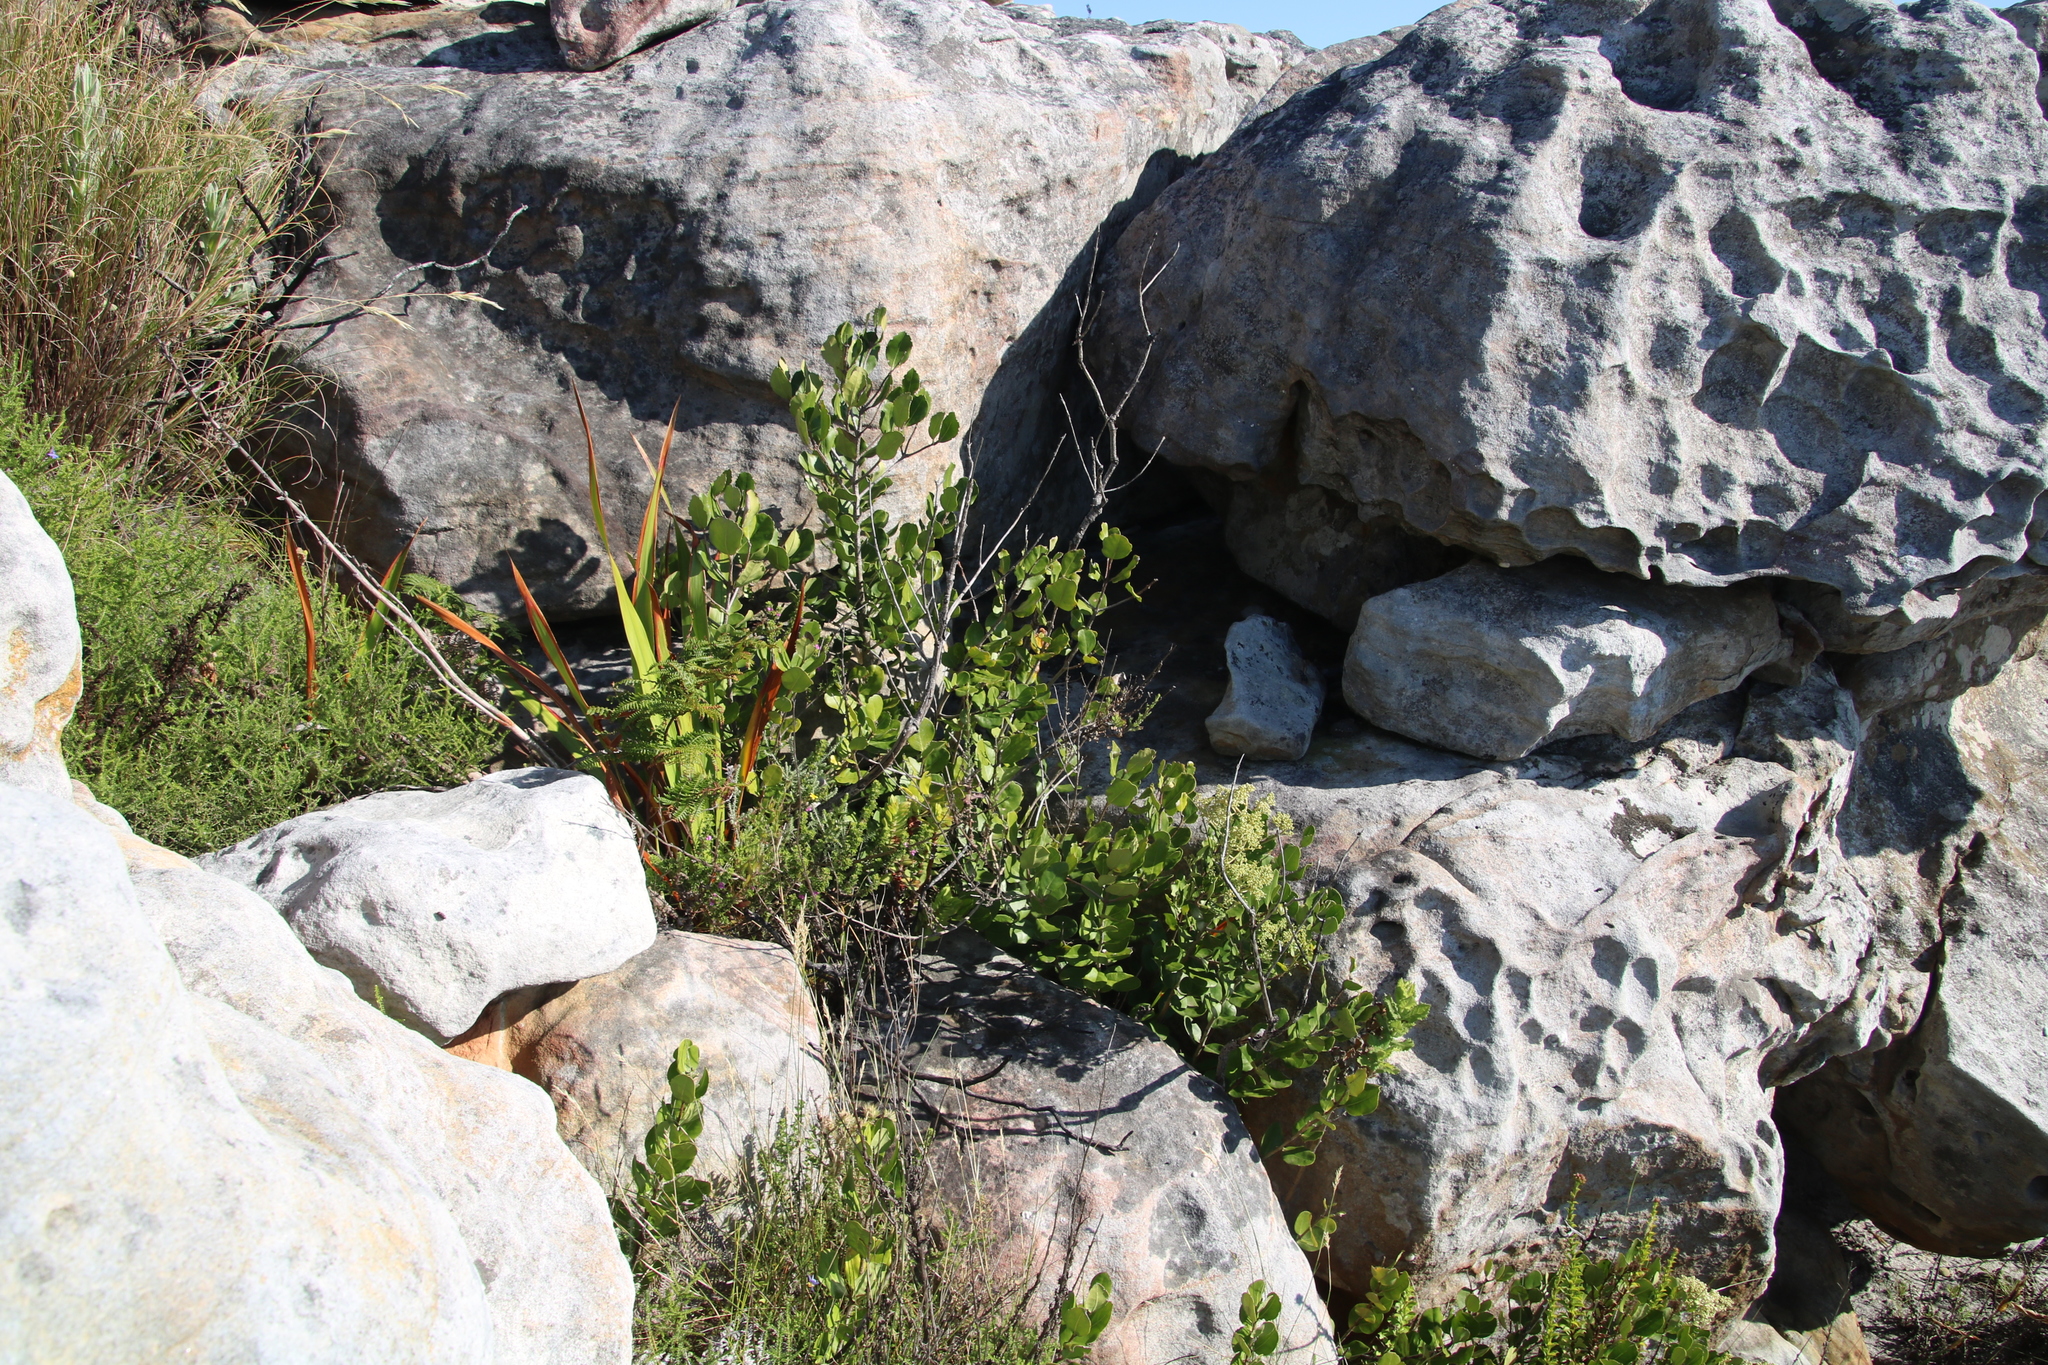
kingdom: Plantae
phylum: Tracheophyta
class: Magnoliopsida
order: Lamiales
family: Oleaceae
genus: Olea
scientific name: Olea capensis
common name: Black ironwood
